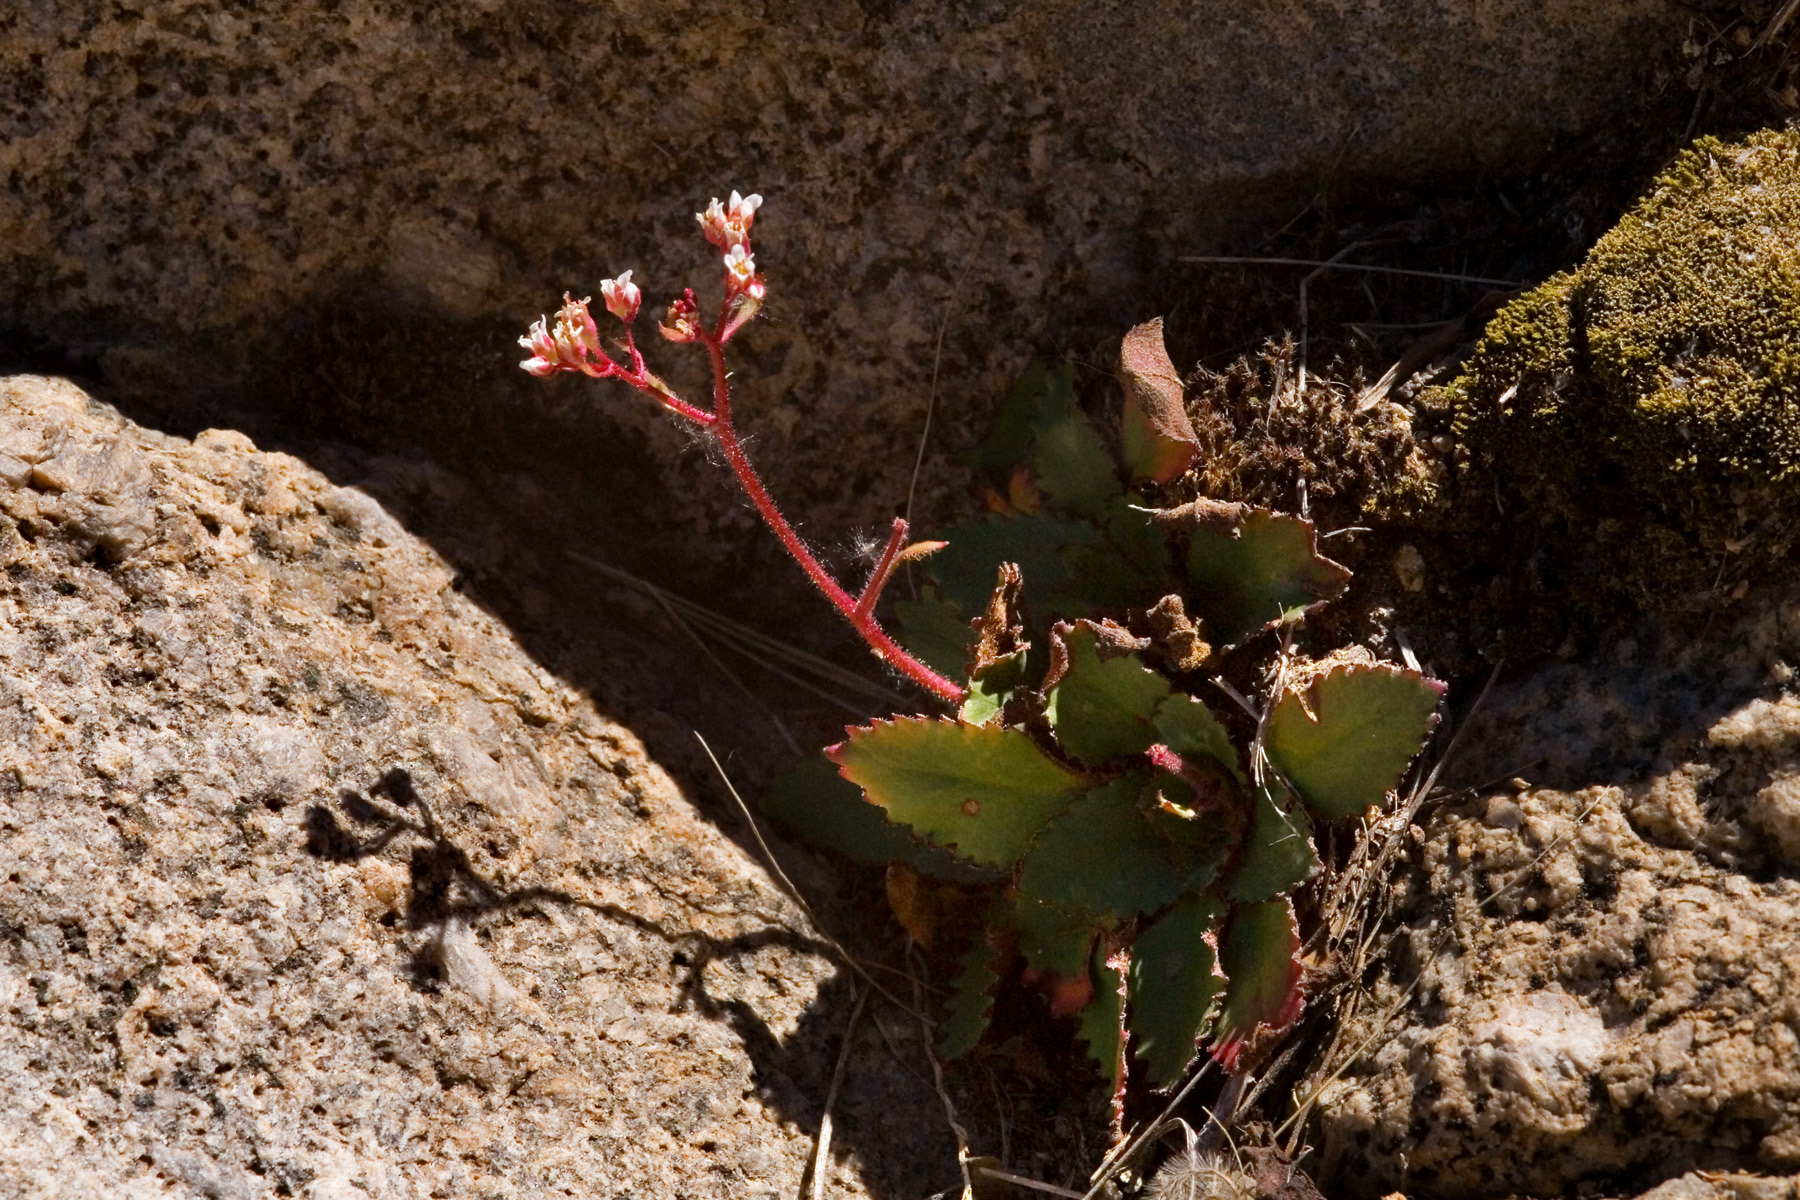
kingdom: Plantae
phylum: Tracheophyta
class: Magnoliopsida
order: Saxifragales
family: Saxifragaceae
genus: Micranthes
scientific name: Micranthes eriophora
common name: Redfuzz saxifrage
